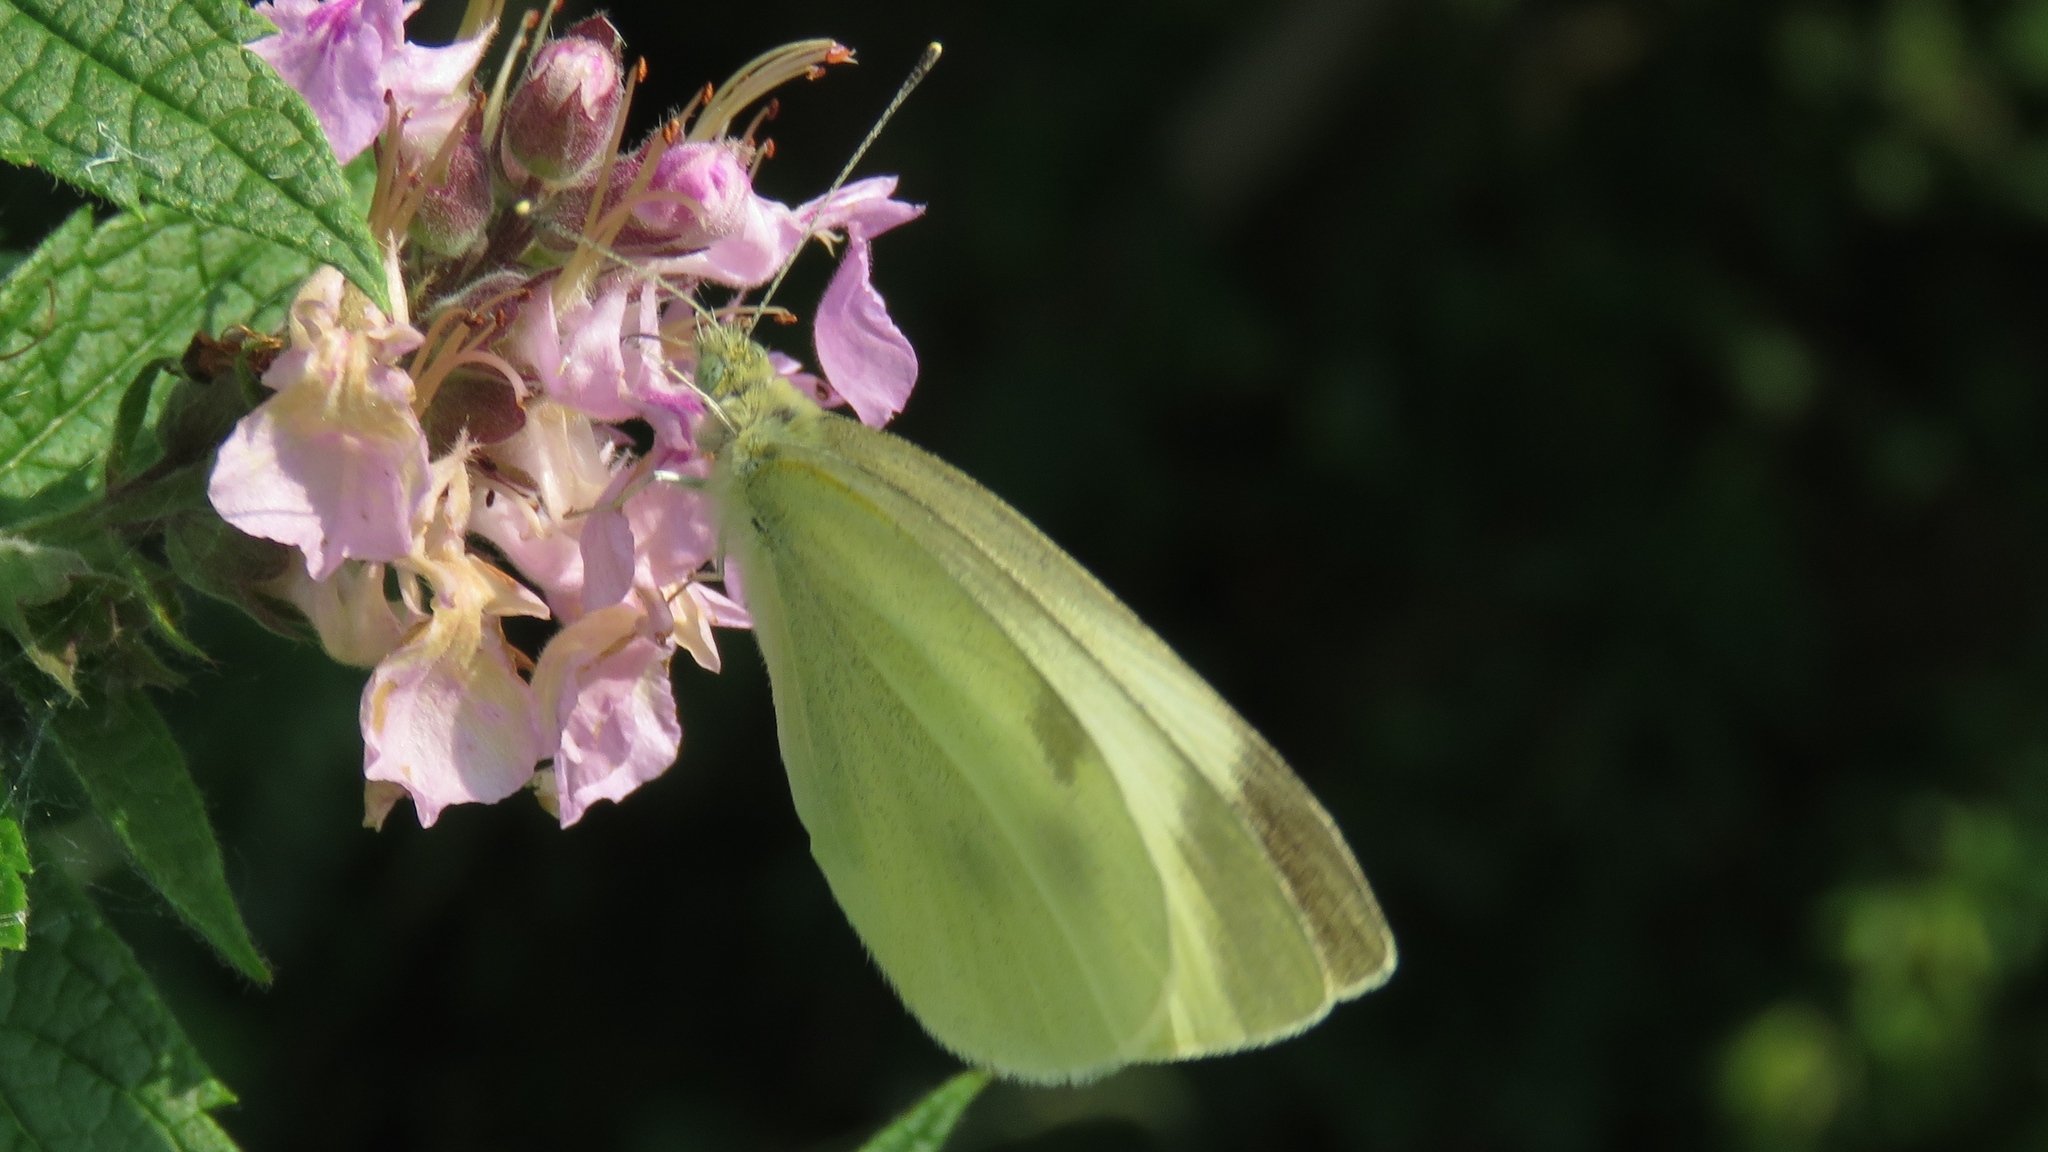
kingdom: Animalia
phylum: Arthropoda
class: Insecta
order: Lepidoptera
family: Pieridae
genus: Pieris
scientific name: Pieris rapae
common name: Small white
